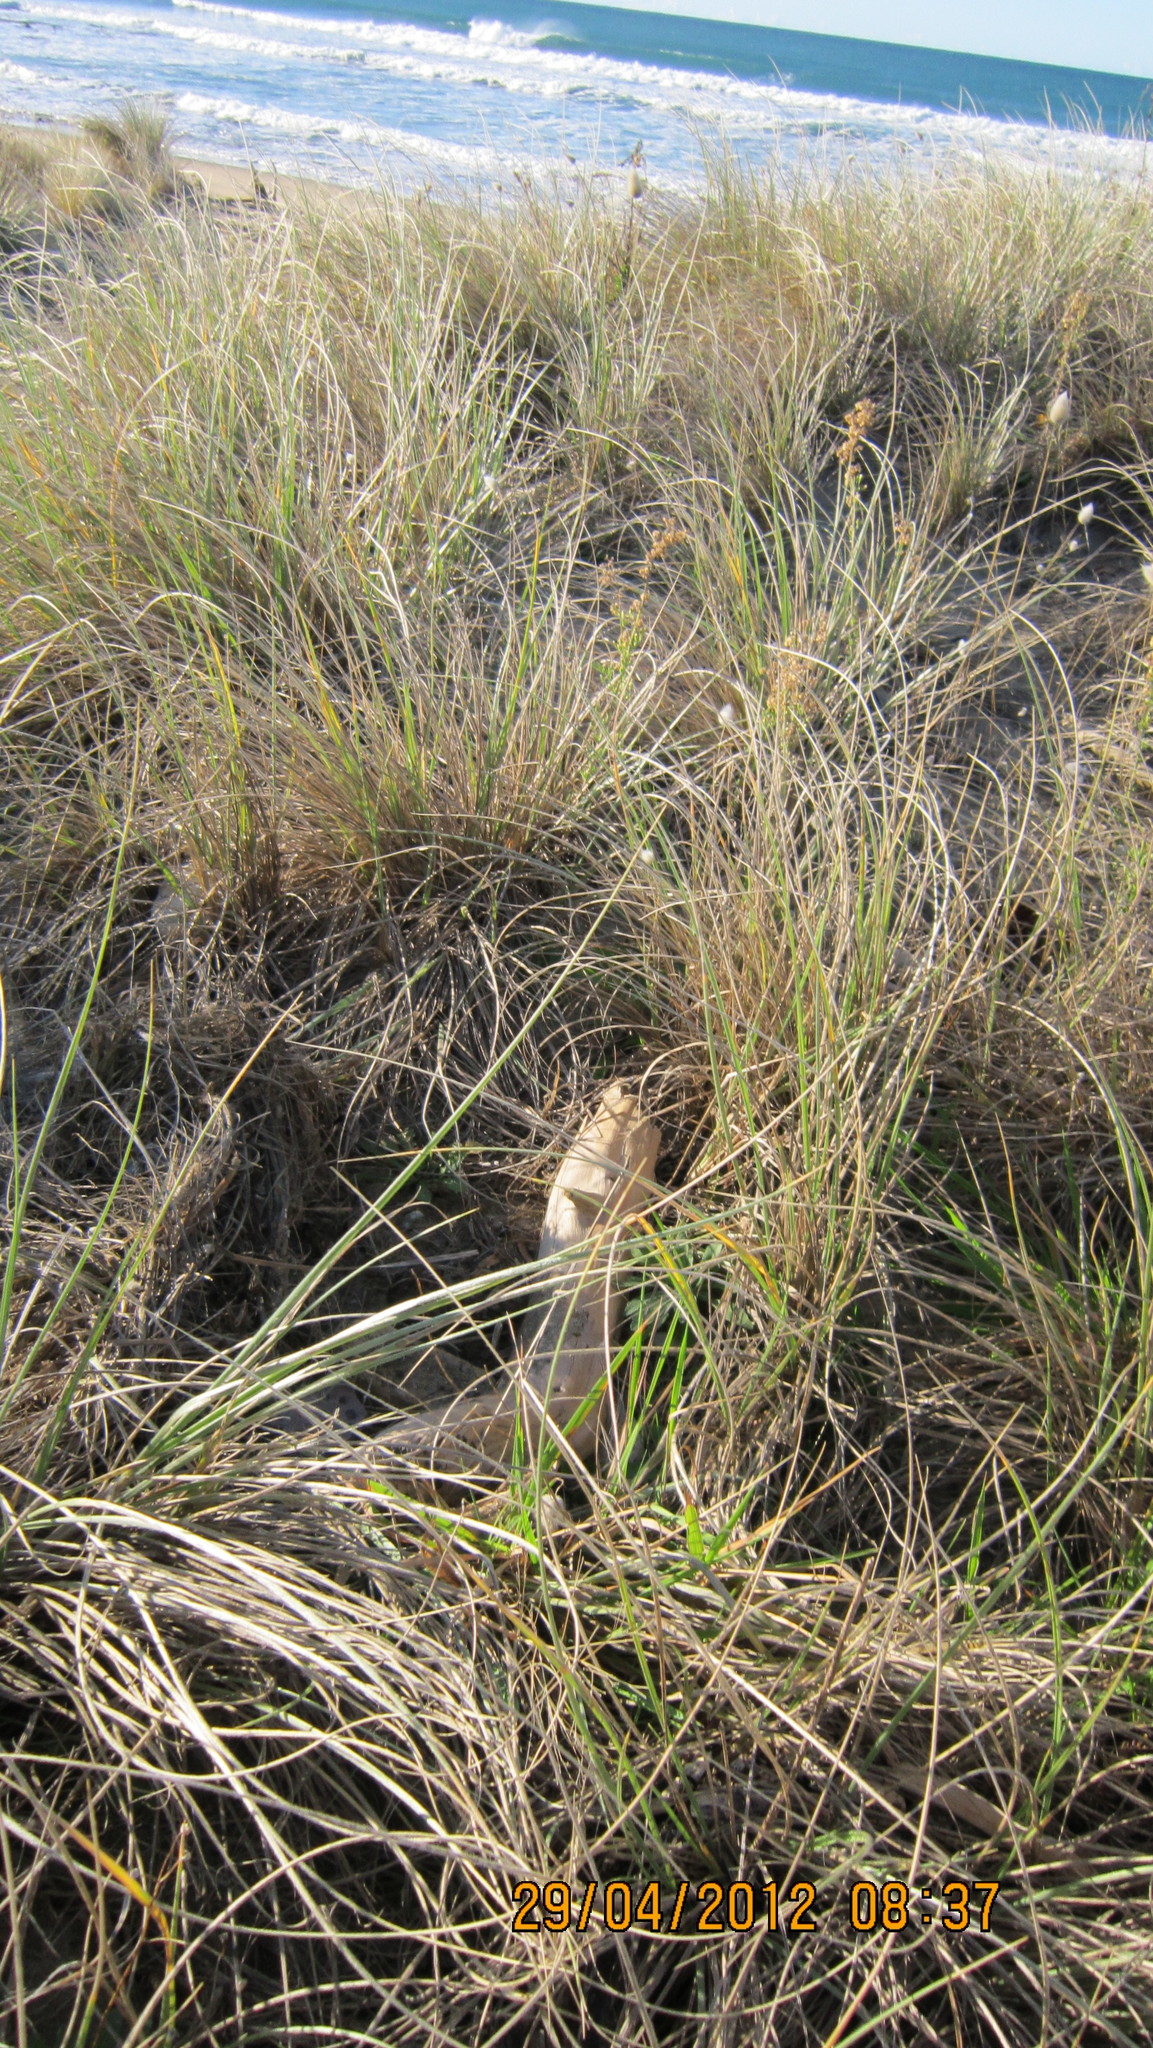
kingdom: Animalia
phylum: Arthropoda
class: Arachnida
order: Araneae
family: Theridiidae
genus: Latrodectus
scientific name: Latrodectus katipo
